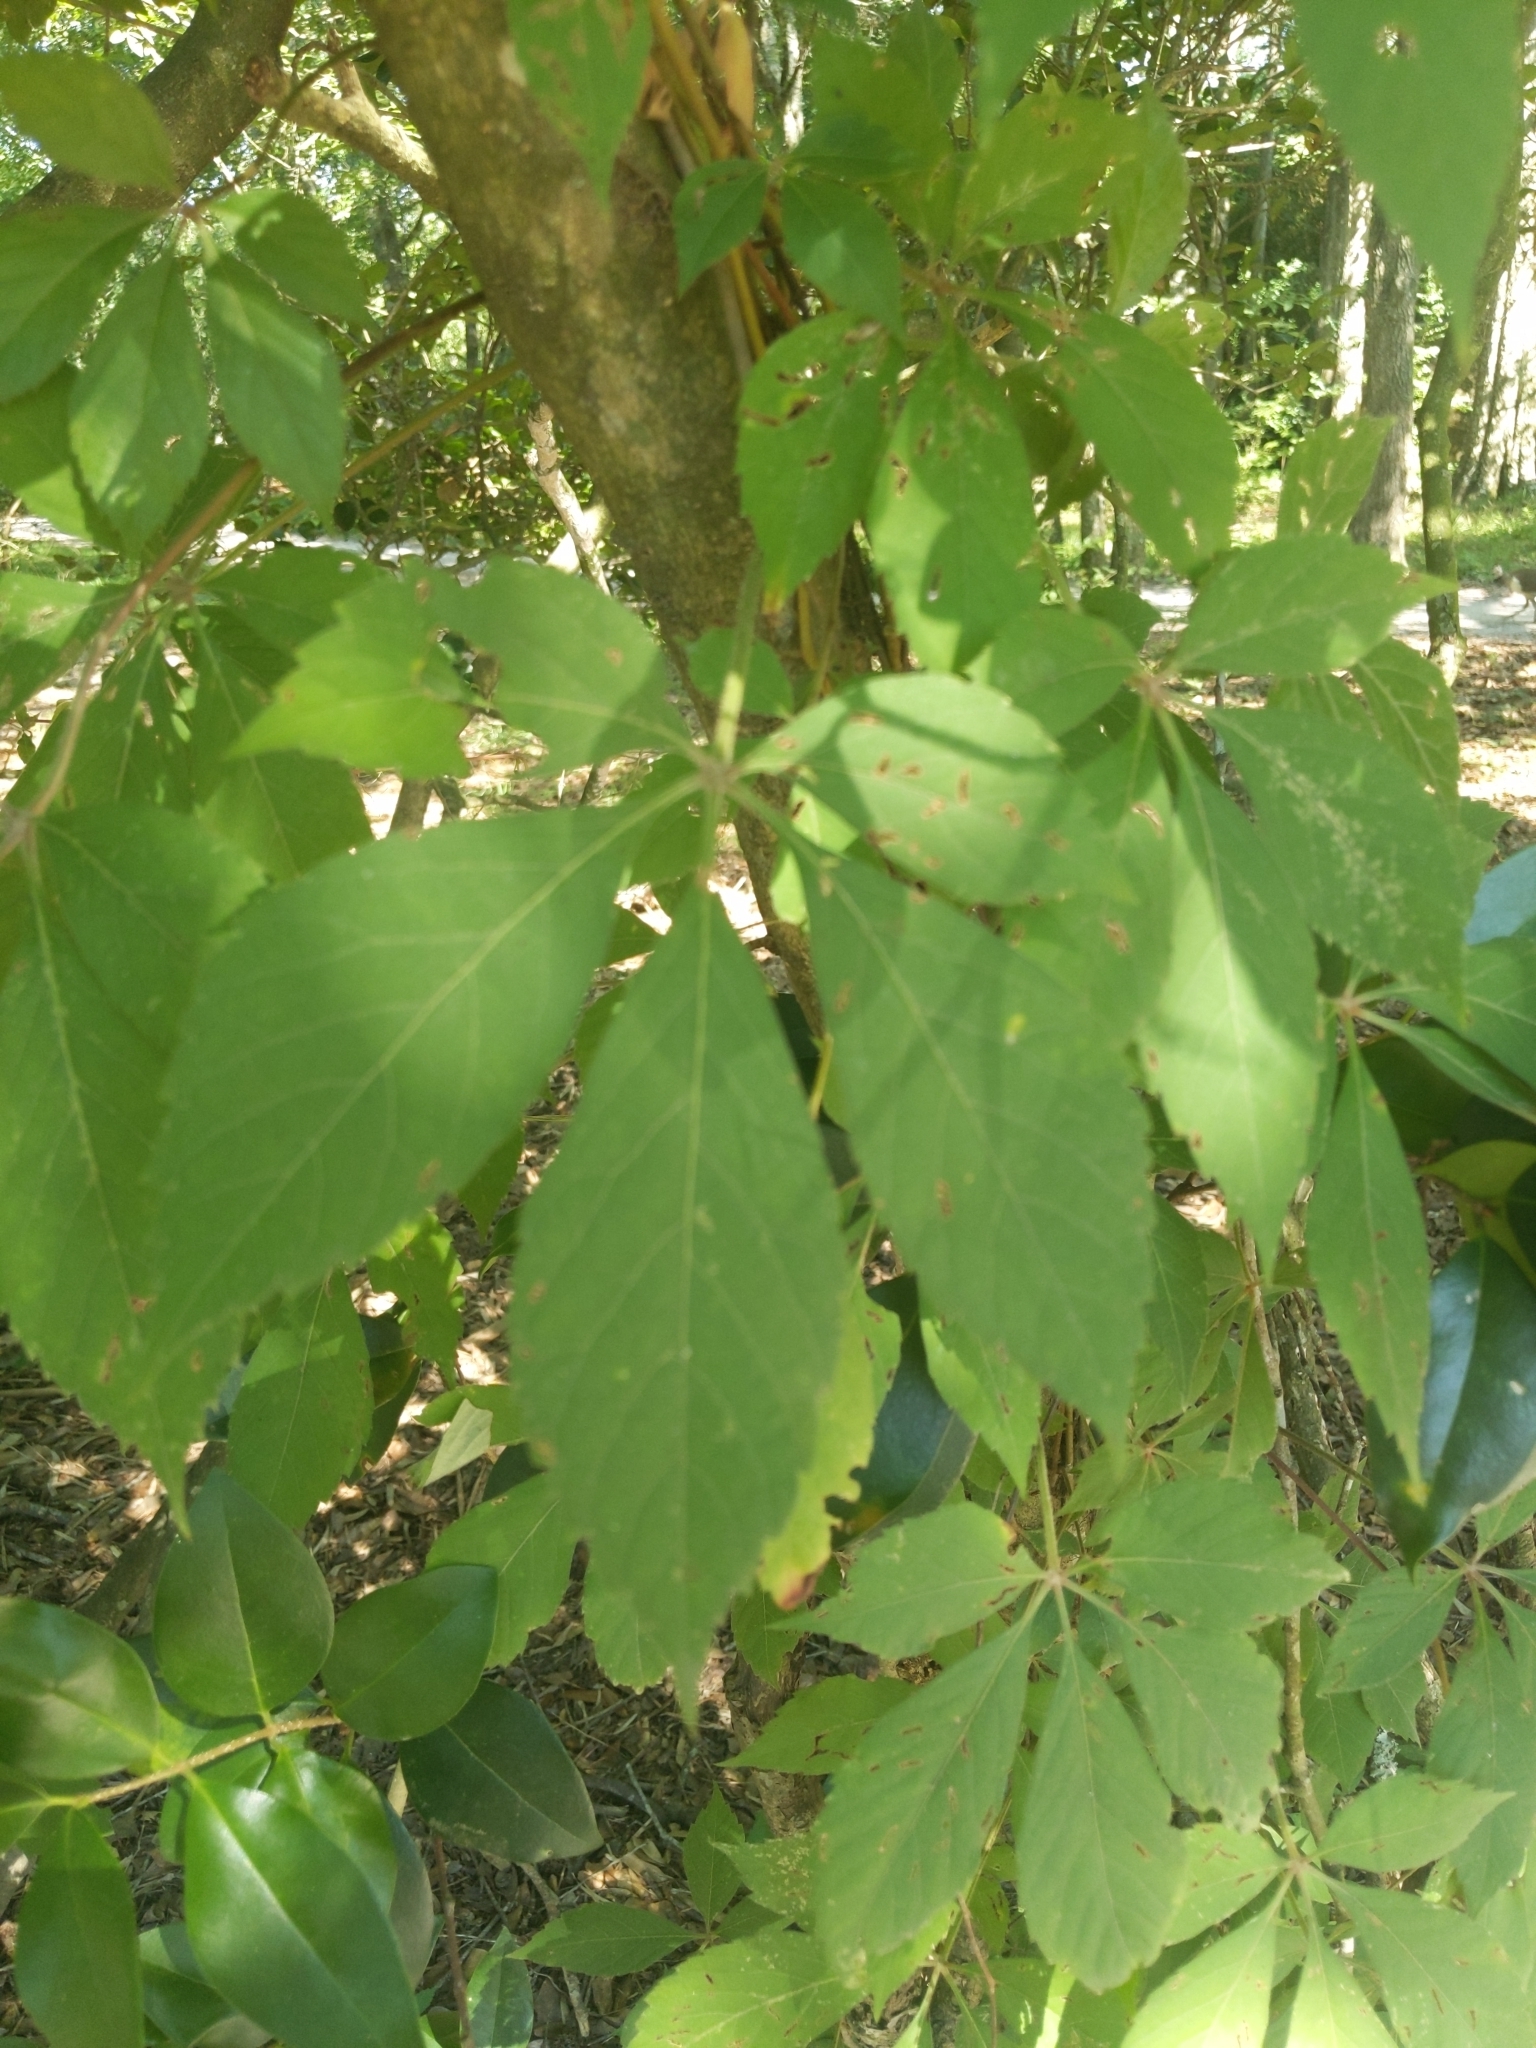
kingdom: Plantae
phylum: Tracheophyta
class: Magnoliopsida
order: Vitales
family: Vitaceae
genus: Parthenocissus
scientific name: Parthenocissus quinquefolia
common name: Virginia-creeper
